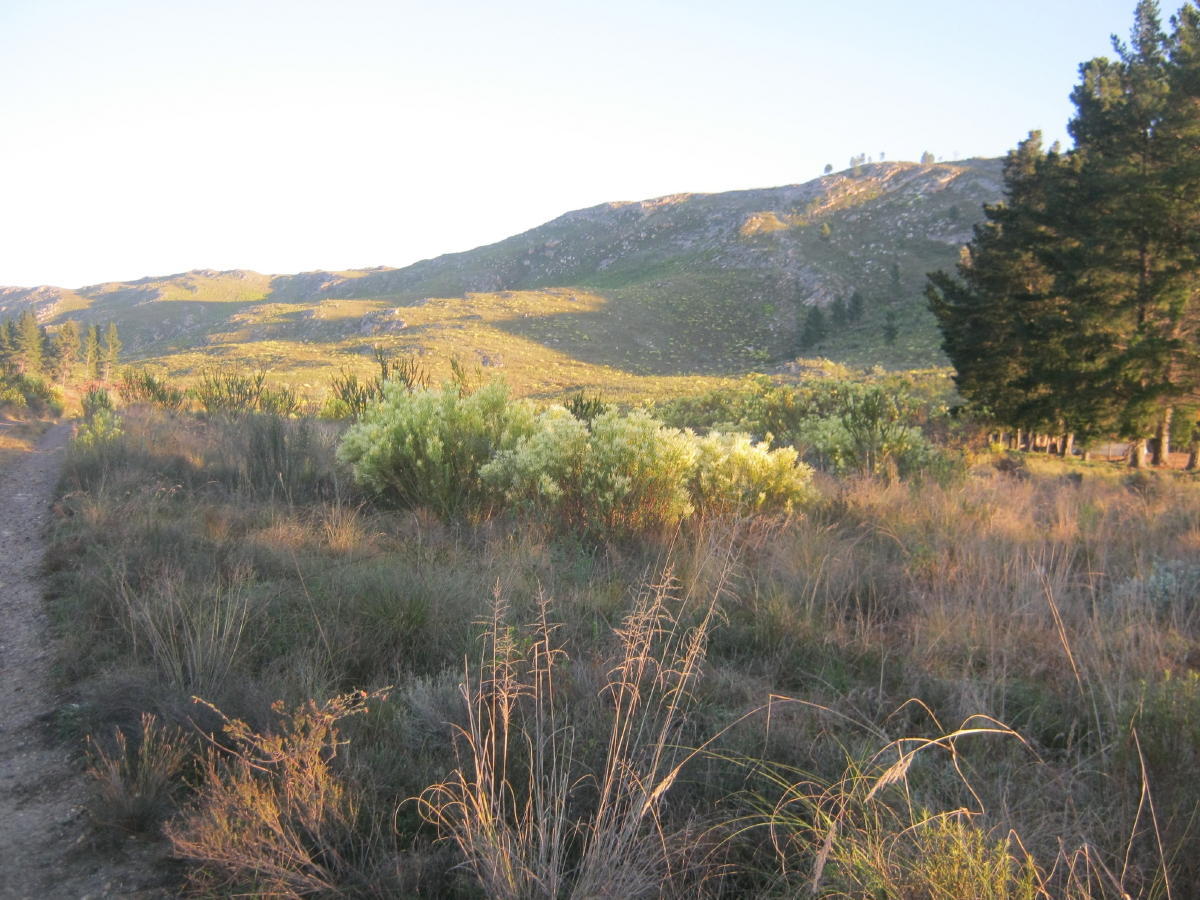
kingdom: Plantae
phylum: Tracheophyta
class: Magnoliopsida
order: Proteales
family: Proteaceae
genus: Leucadendron
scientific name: Leucadendron salignum
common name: Common sunshine conebush
